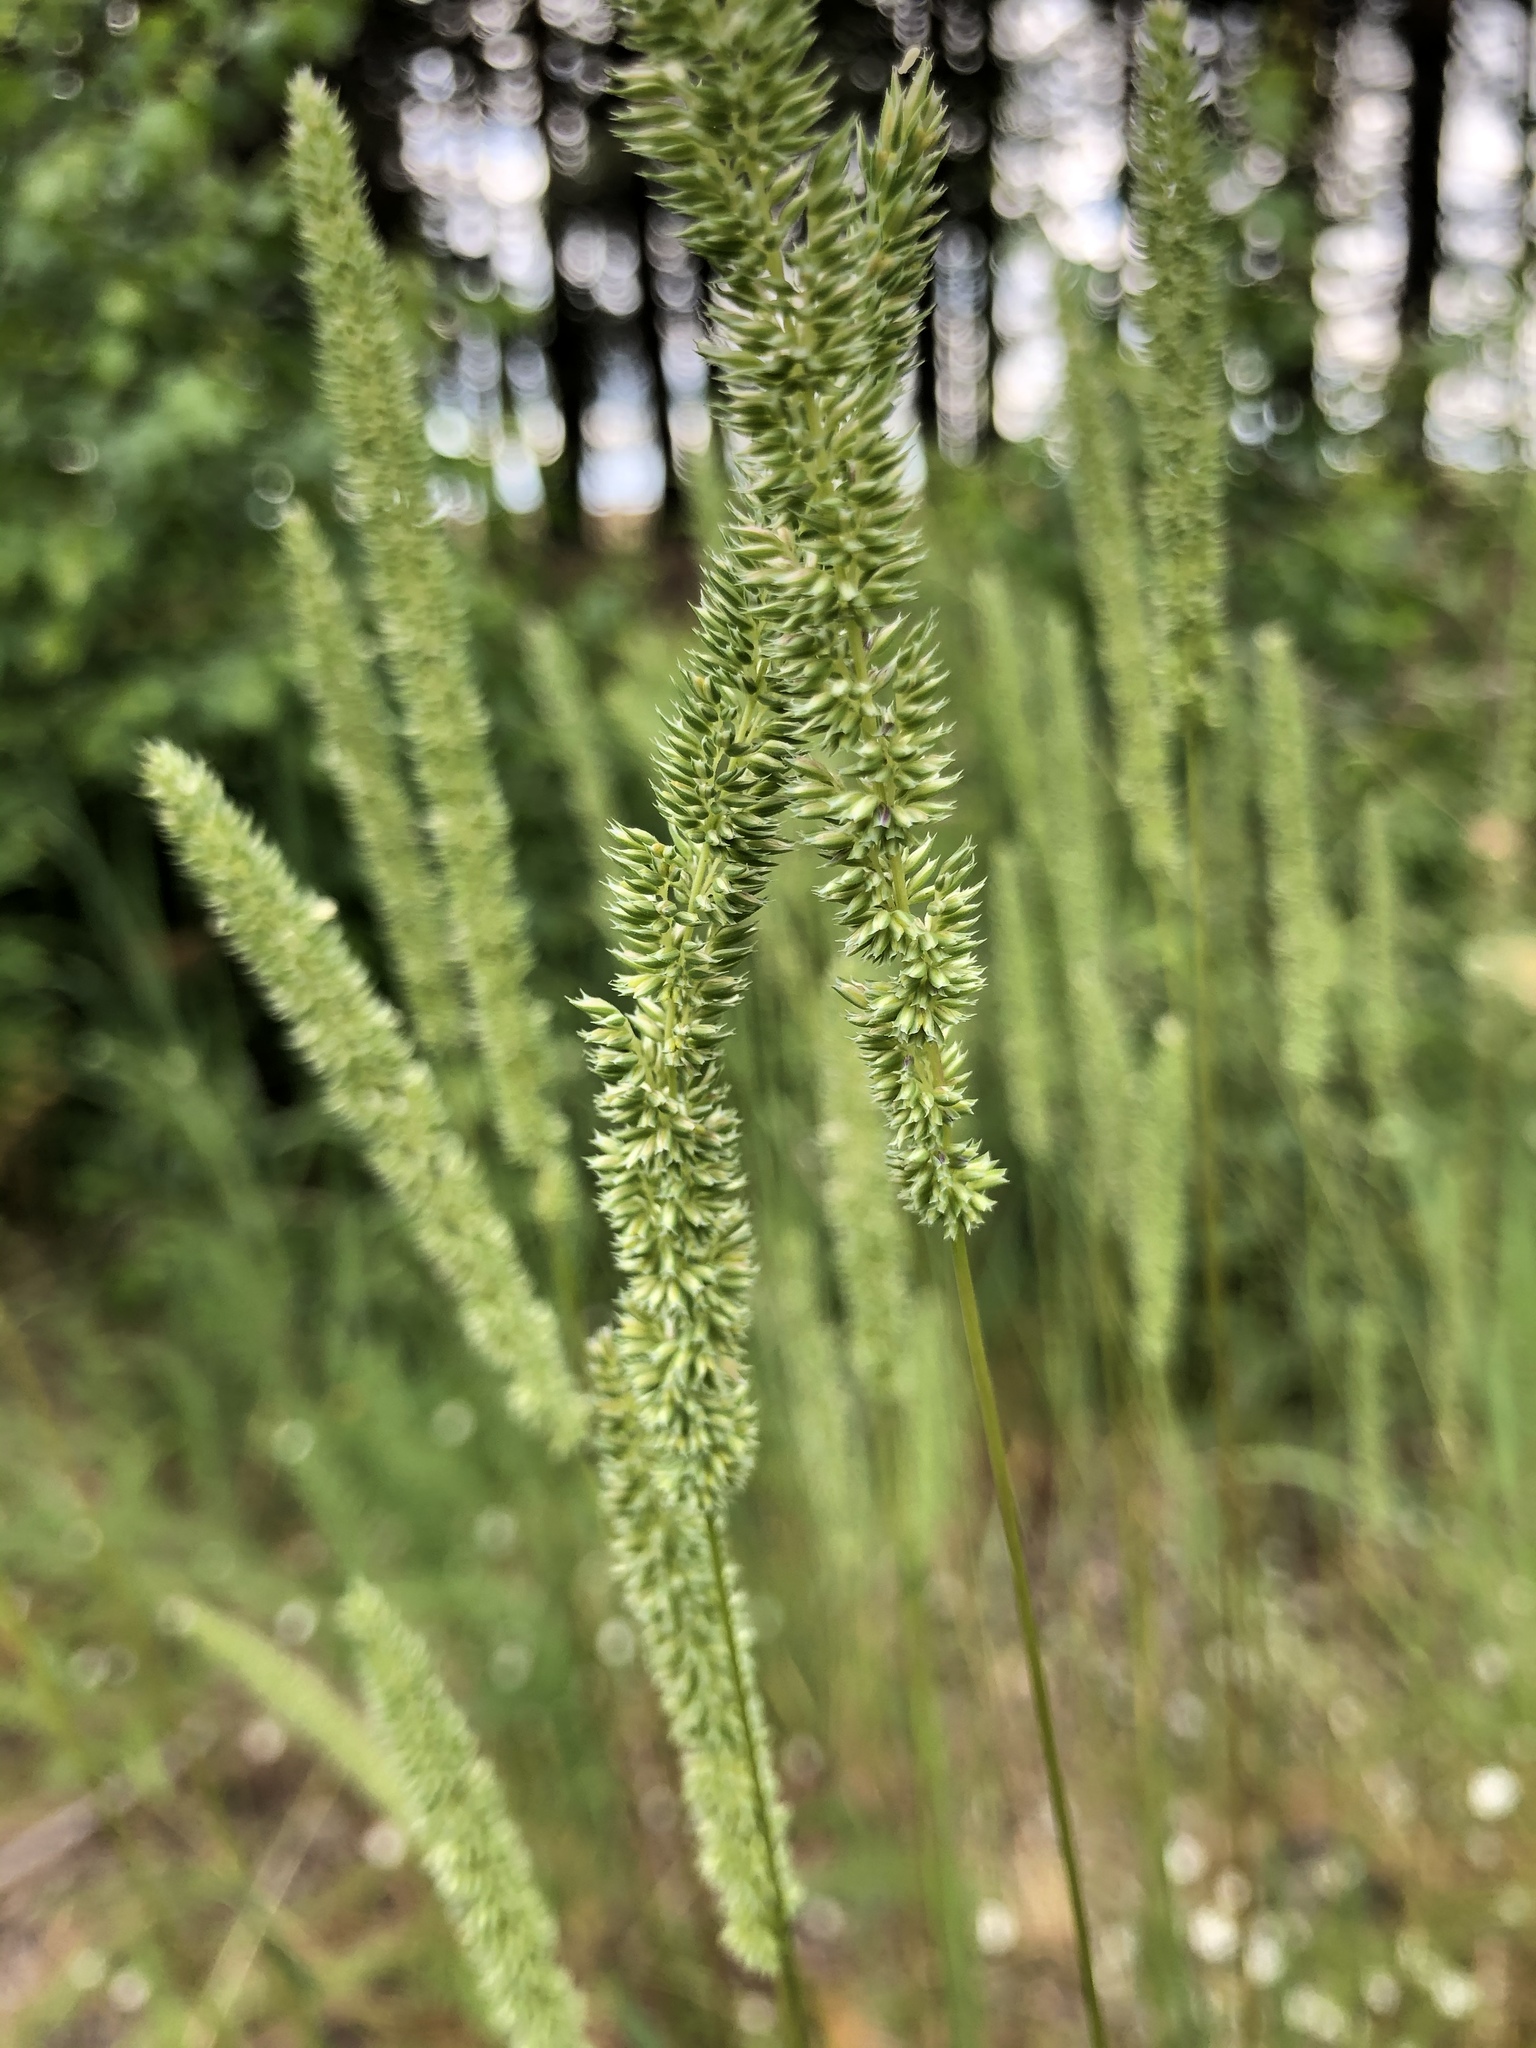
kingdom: Plantae
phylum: Tracheophyta
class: Liliopsida
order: Poales
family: Poaceae
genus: Phleum
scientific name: Phleum phleoides
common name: Purple-stem cat's-tail
